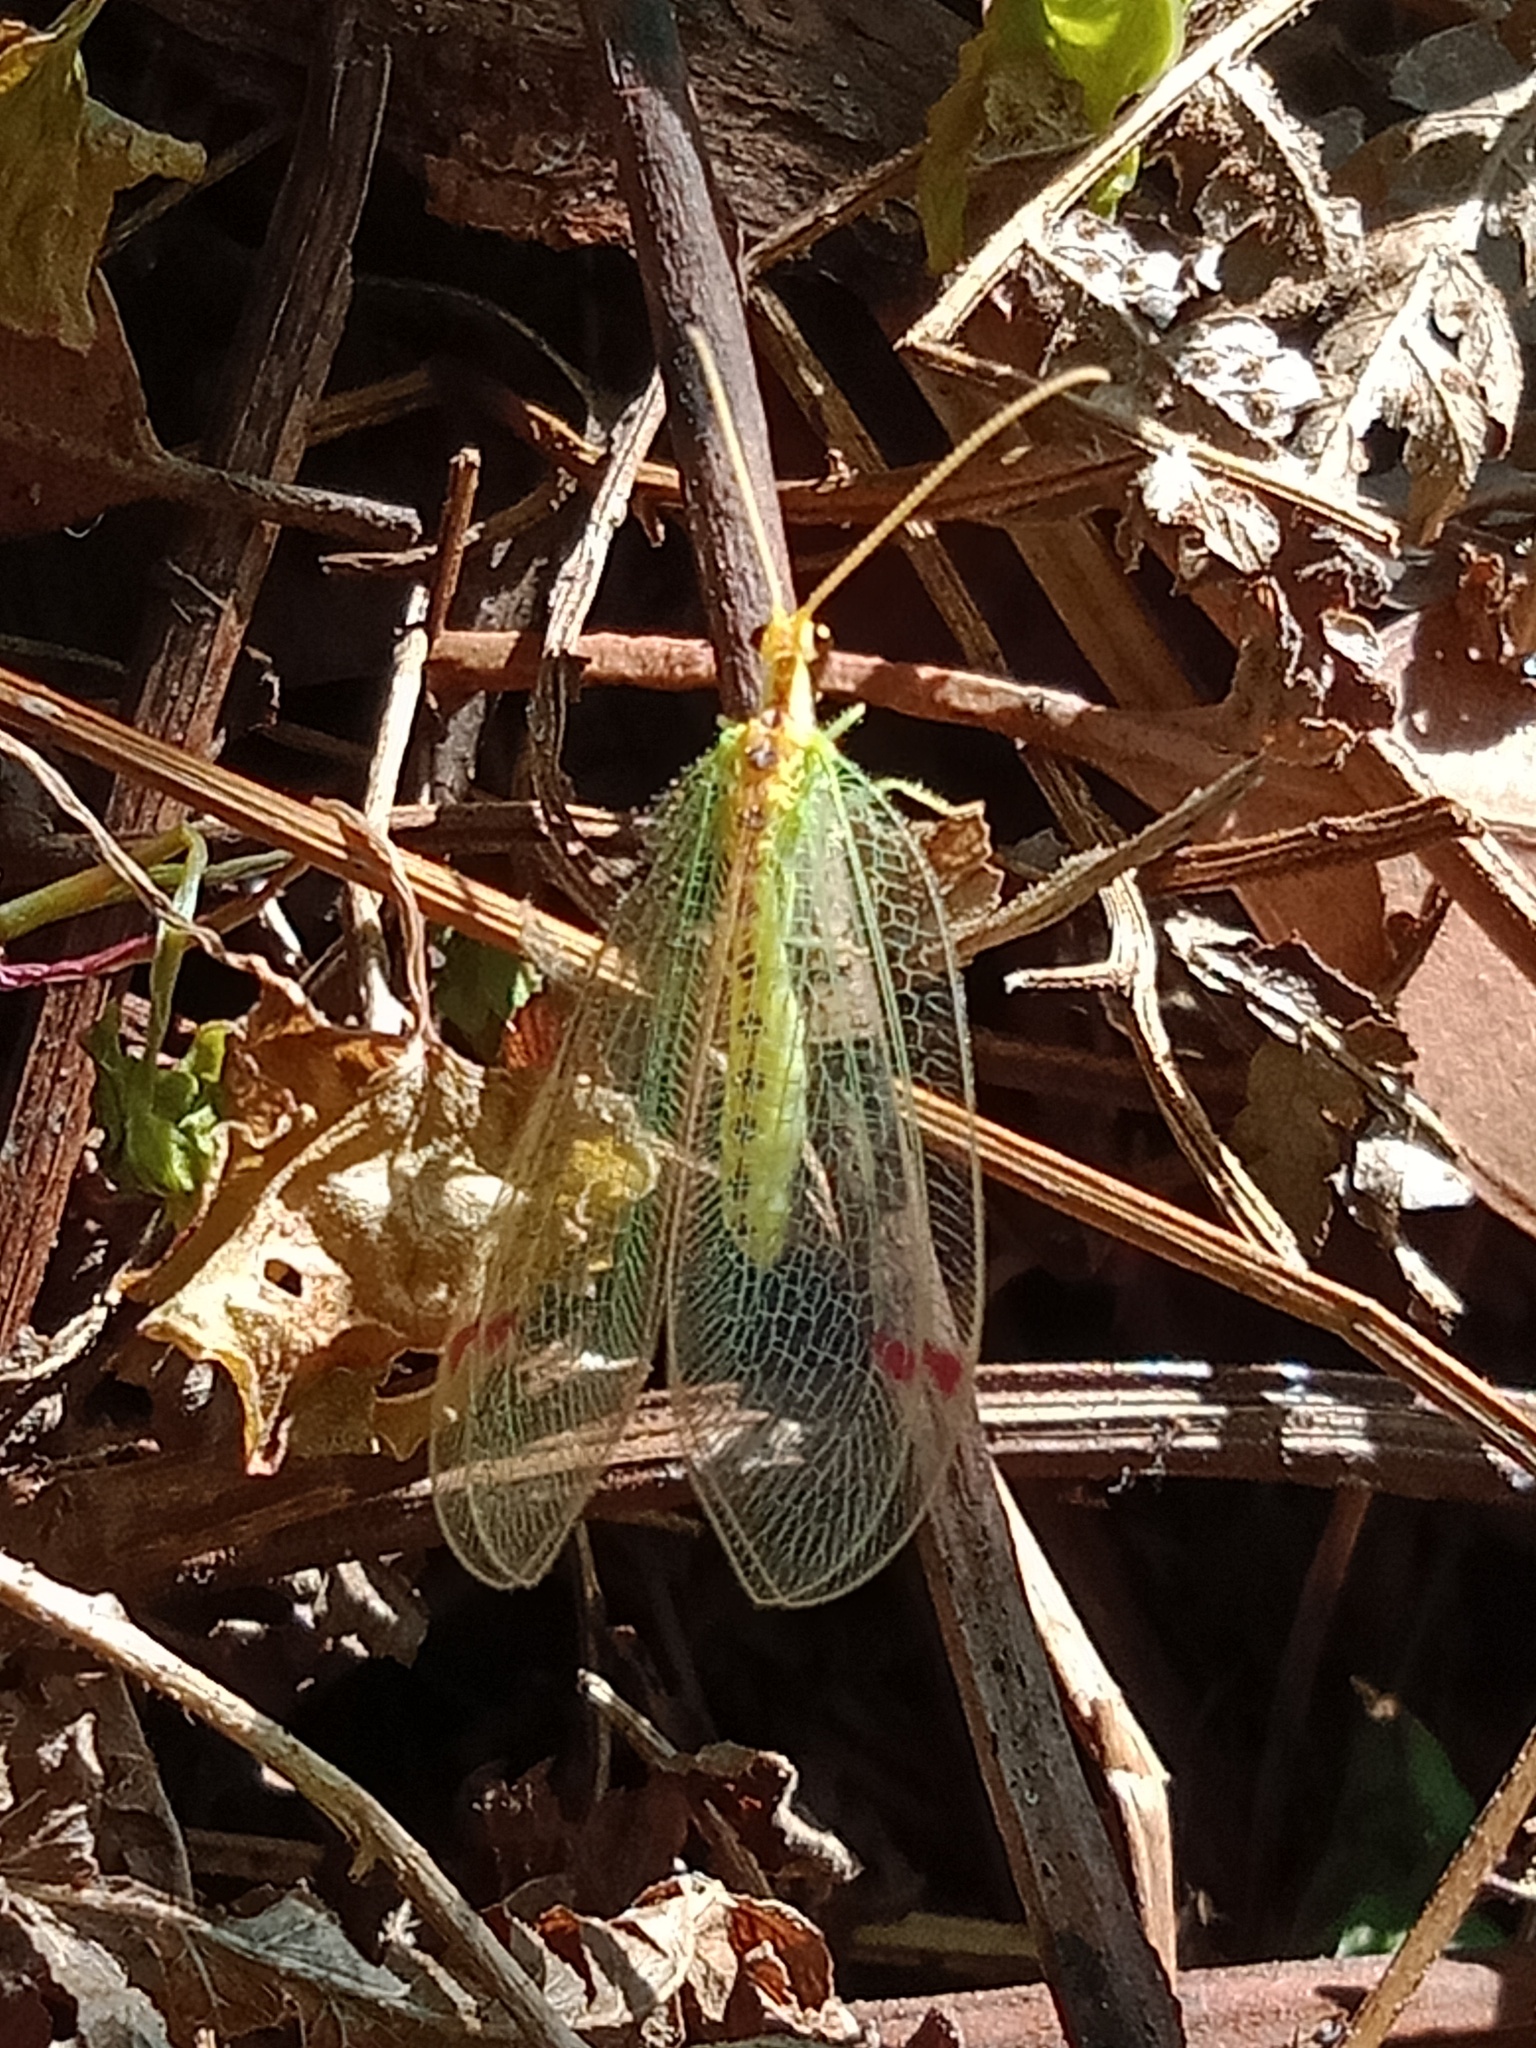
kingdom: Animalia
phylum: Arthropoda
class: Insecta
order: Neuroptera
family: Nymphidae
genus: Norfolius
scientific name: Norfolius howensis
